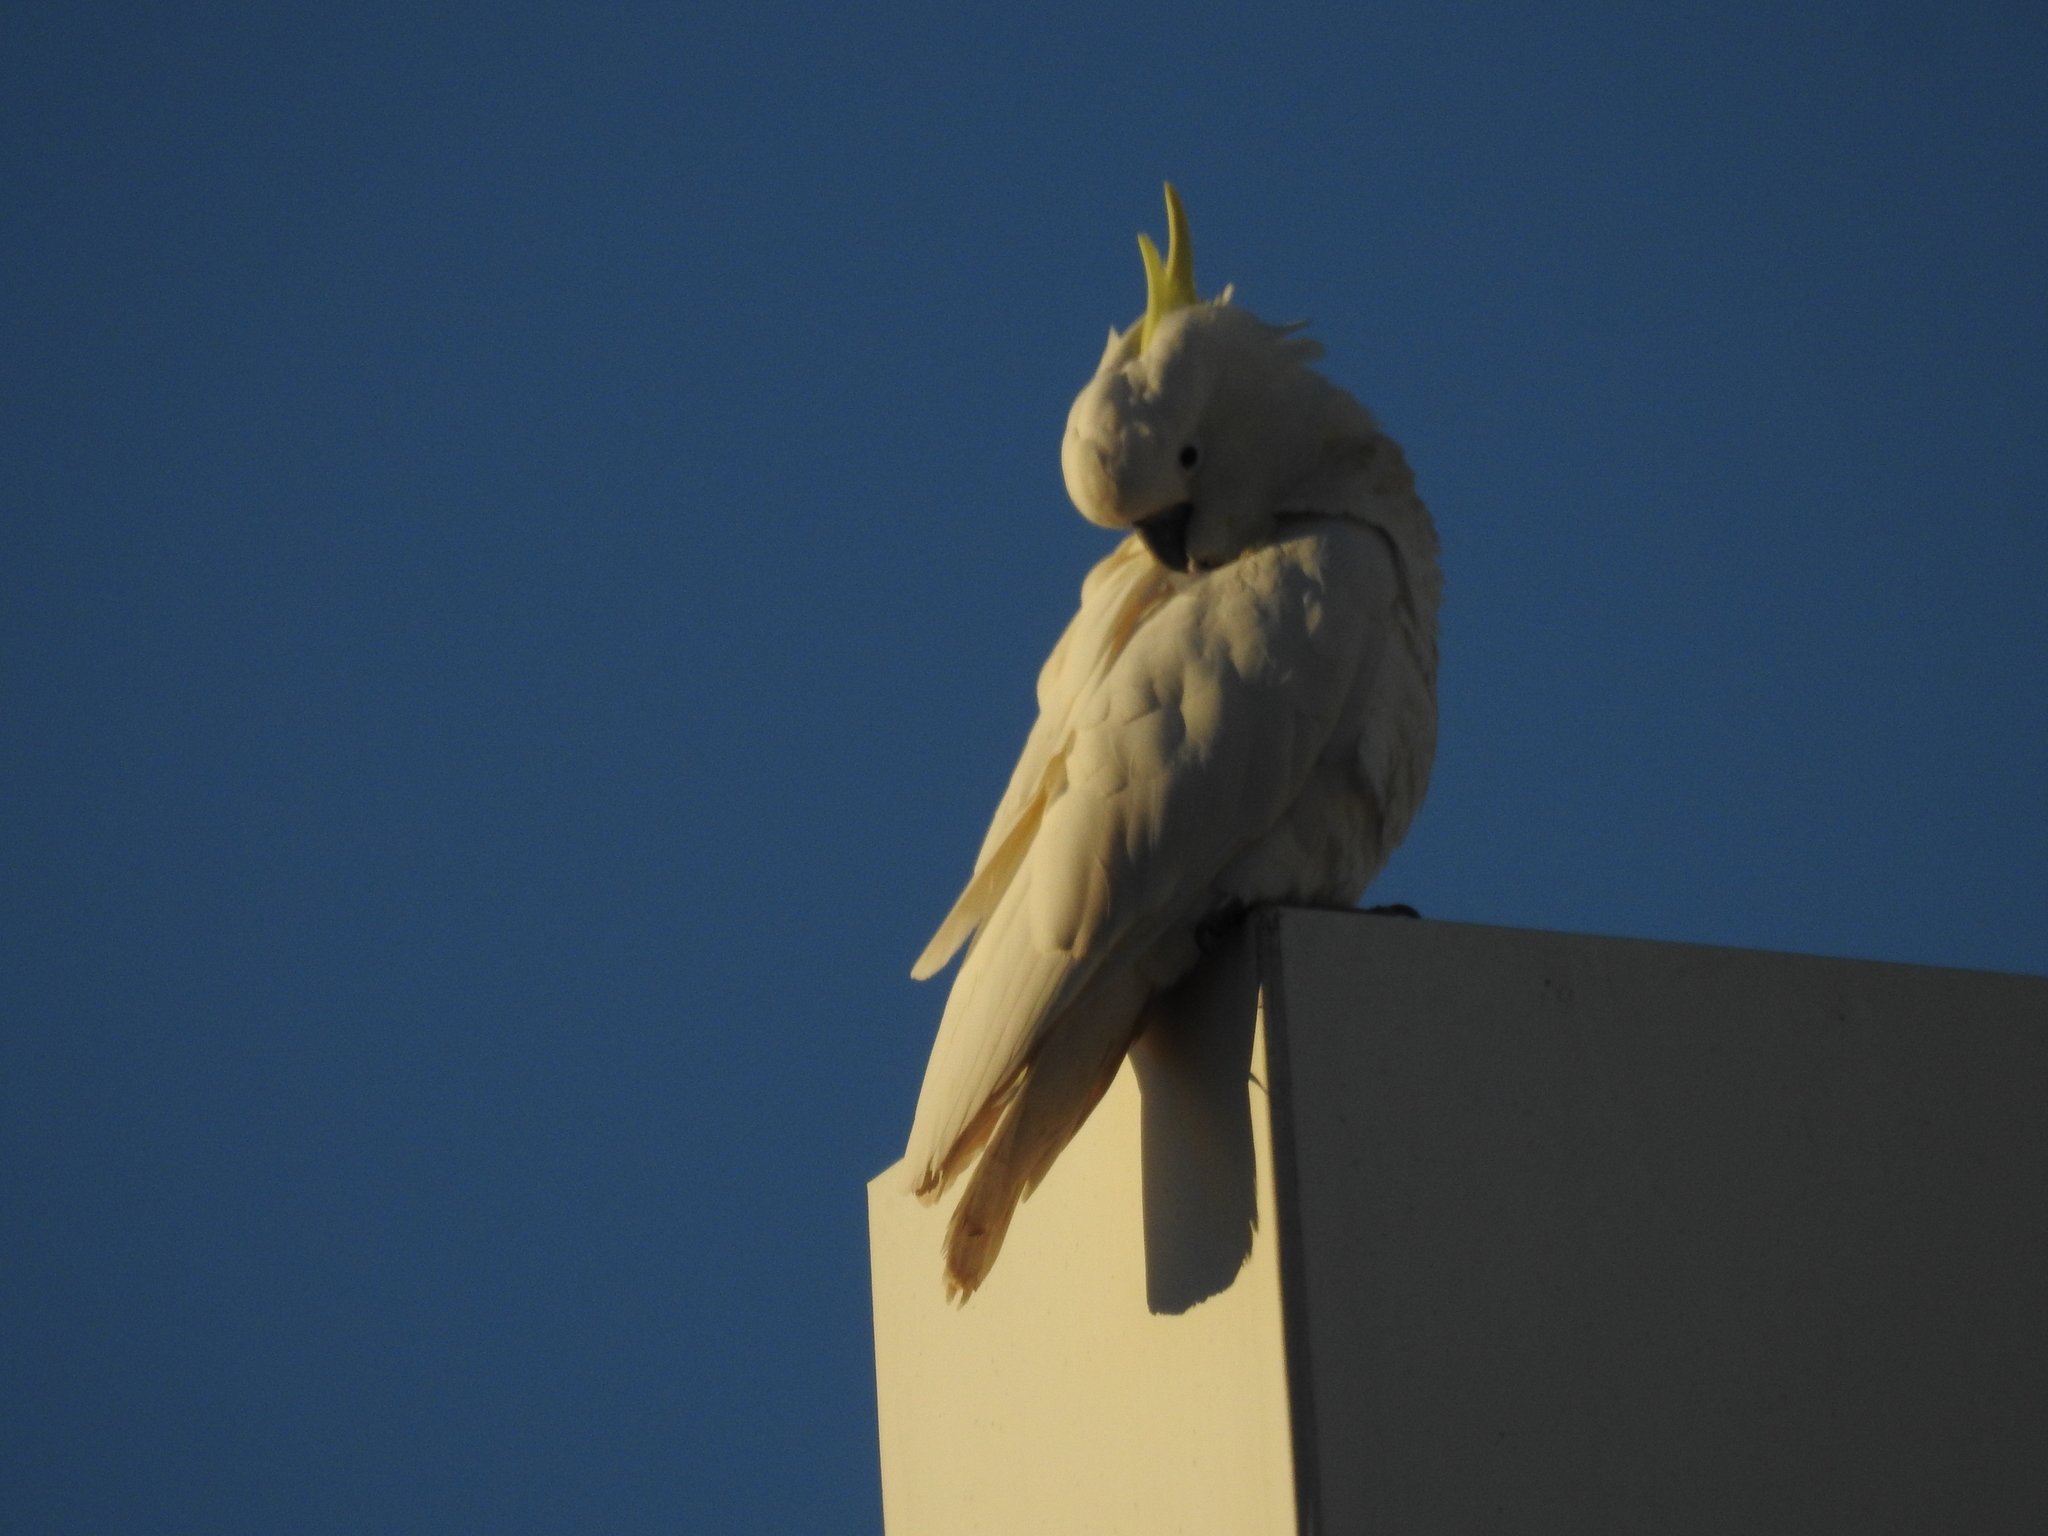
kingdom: Animalia
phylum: Chordata
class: Aves
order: Psittaciformes
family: Psittacidae
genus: Cacatua
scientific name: Cacatua galerita
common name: Sulphur-crested cockatoo
